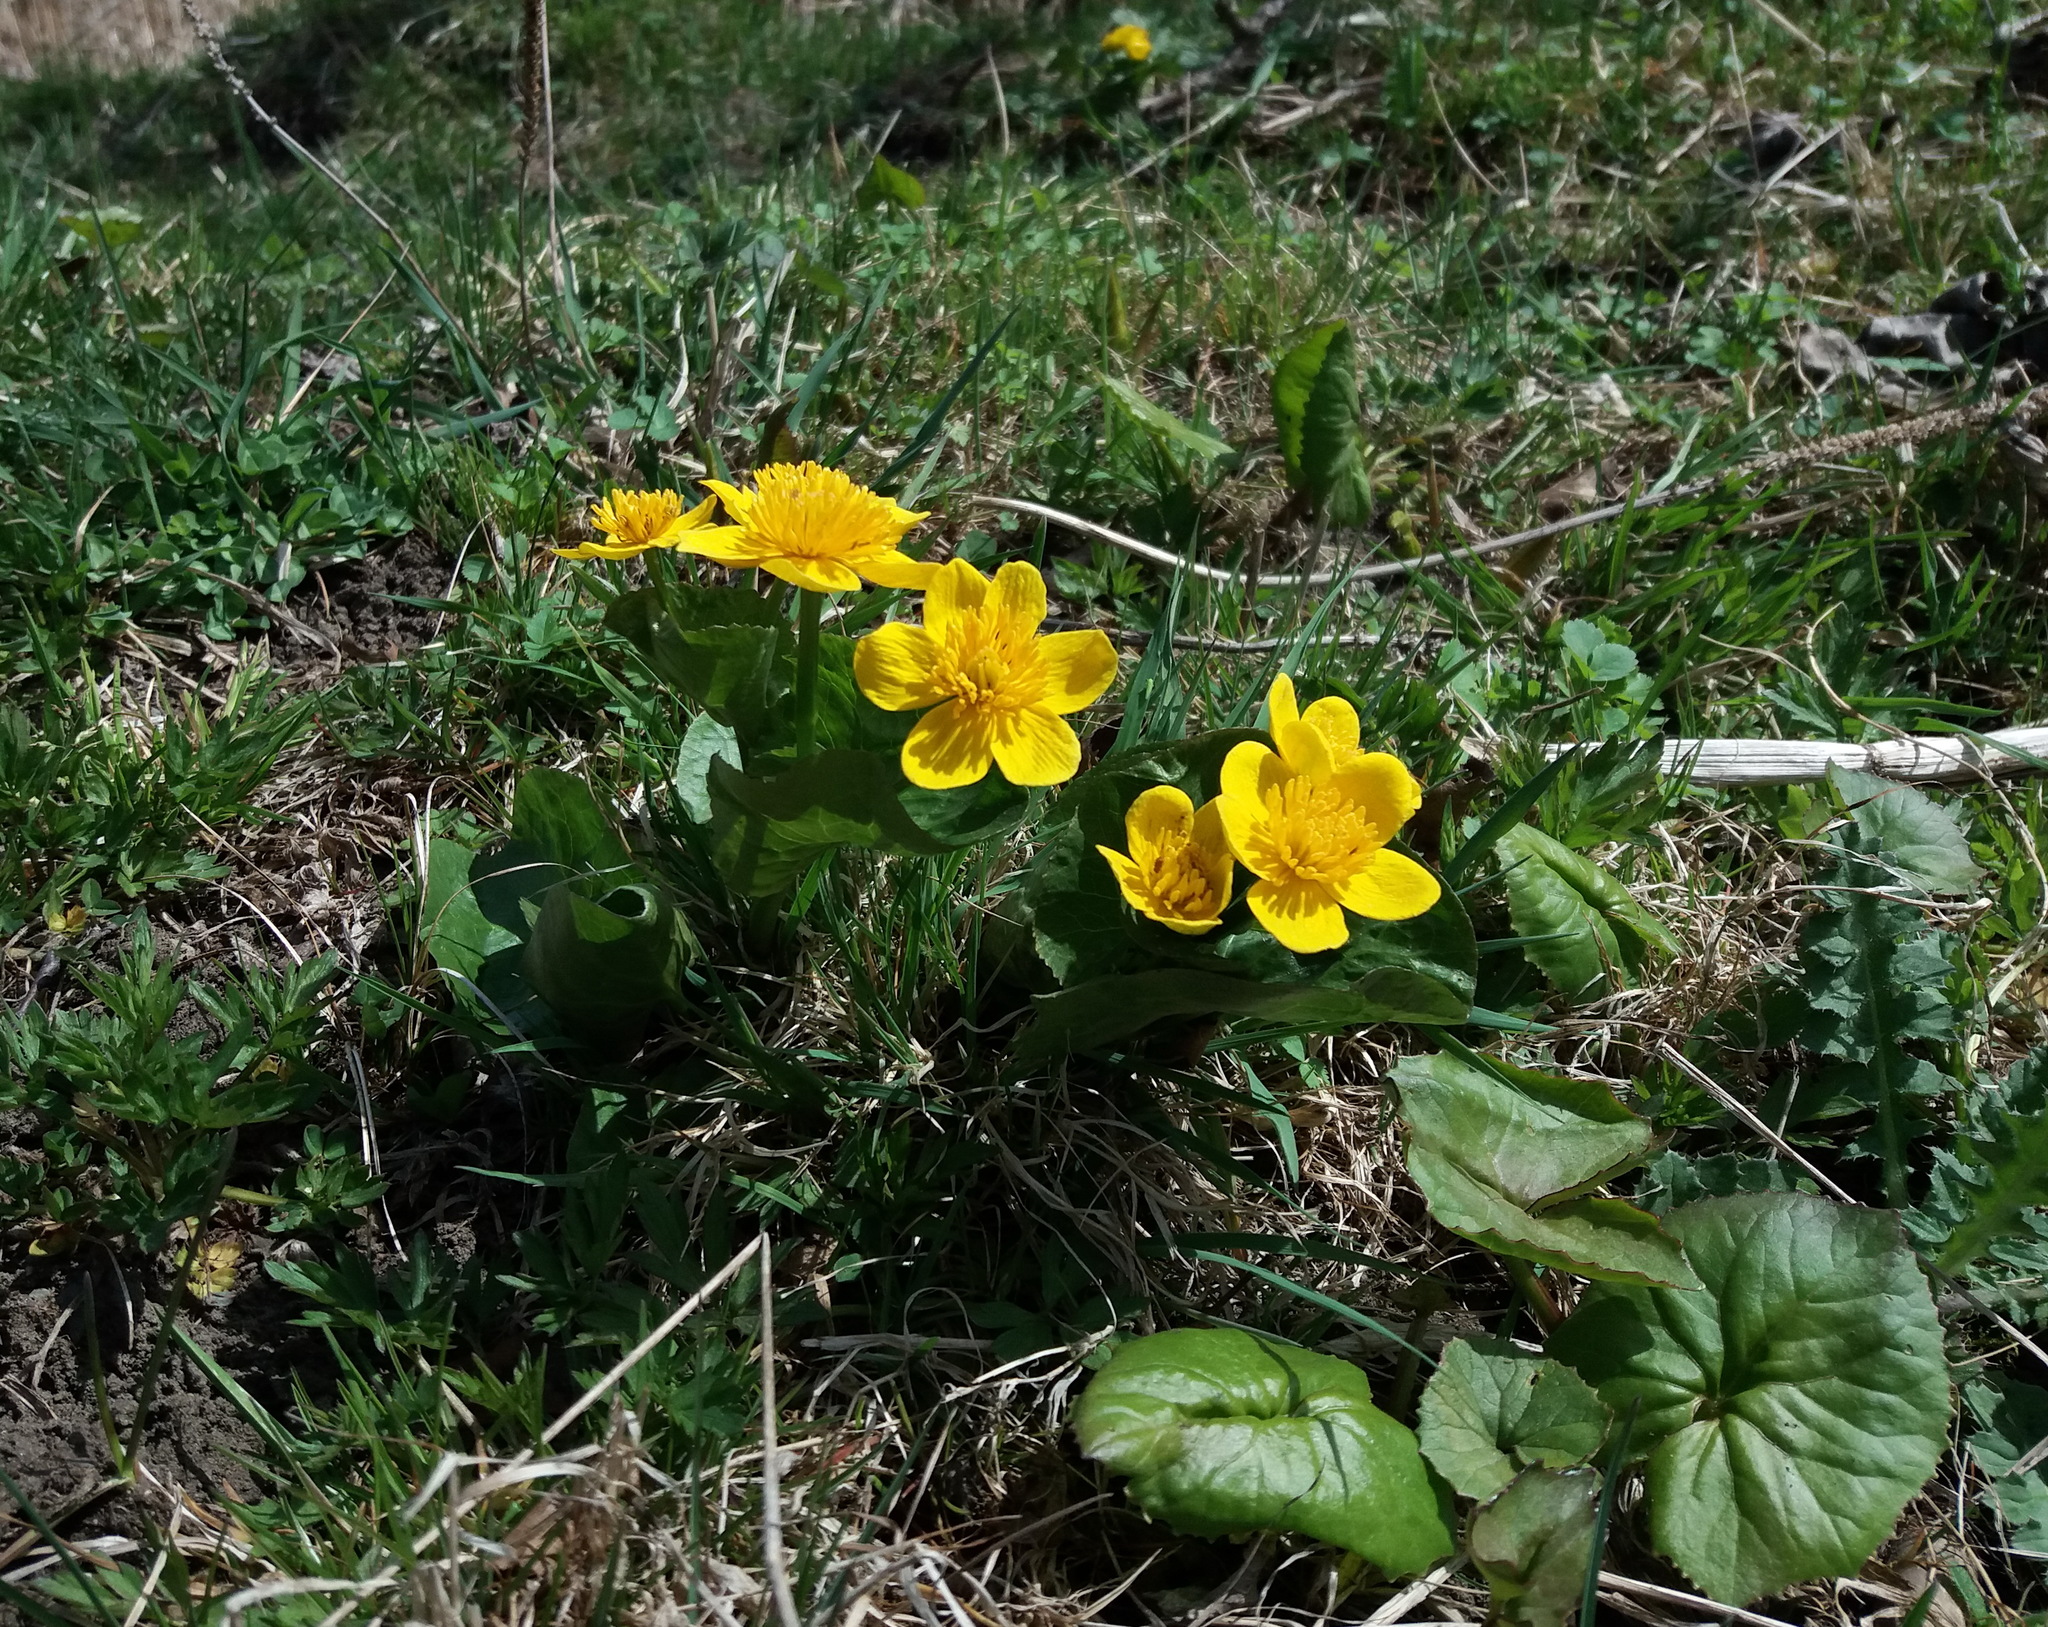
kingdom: Plantae
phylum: Tracheophyta
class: Magnoliopsida
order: Ranunculales
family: Ranunculaceae
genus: Caltha
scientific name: Caltha palustris
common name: Marsh marigold
